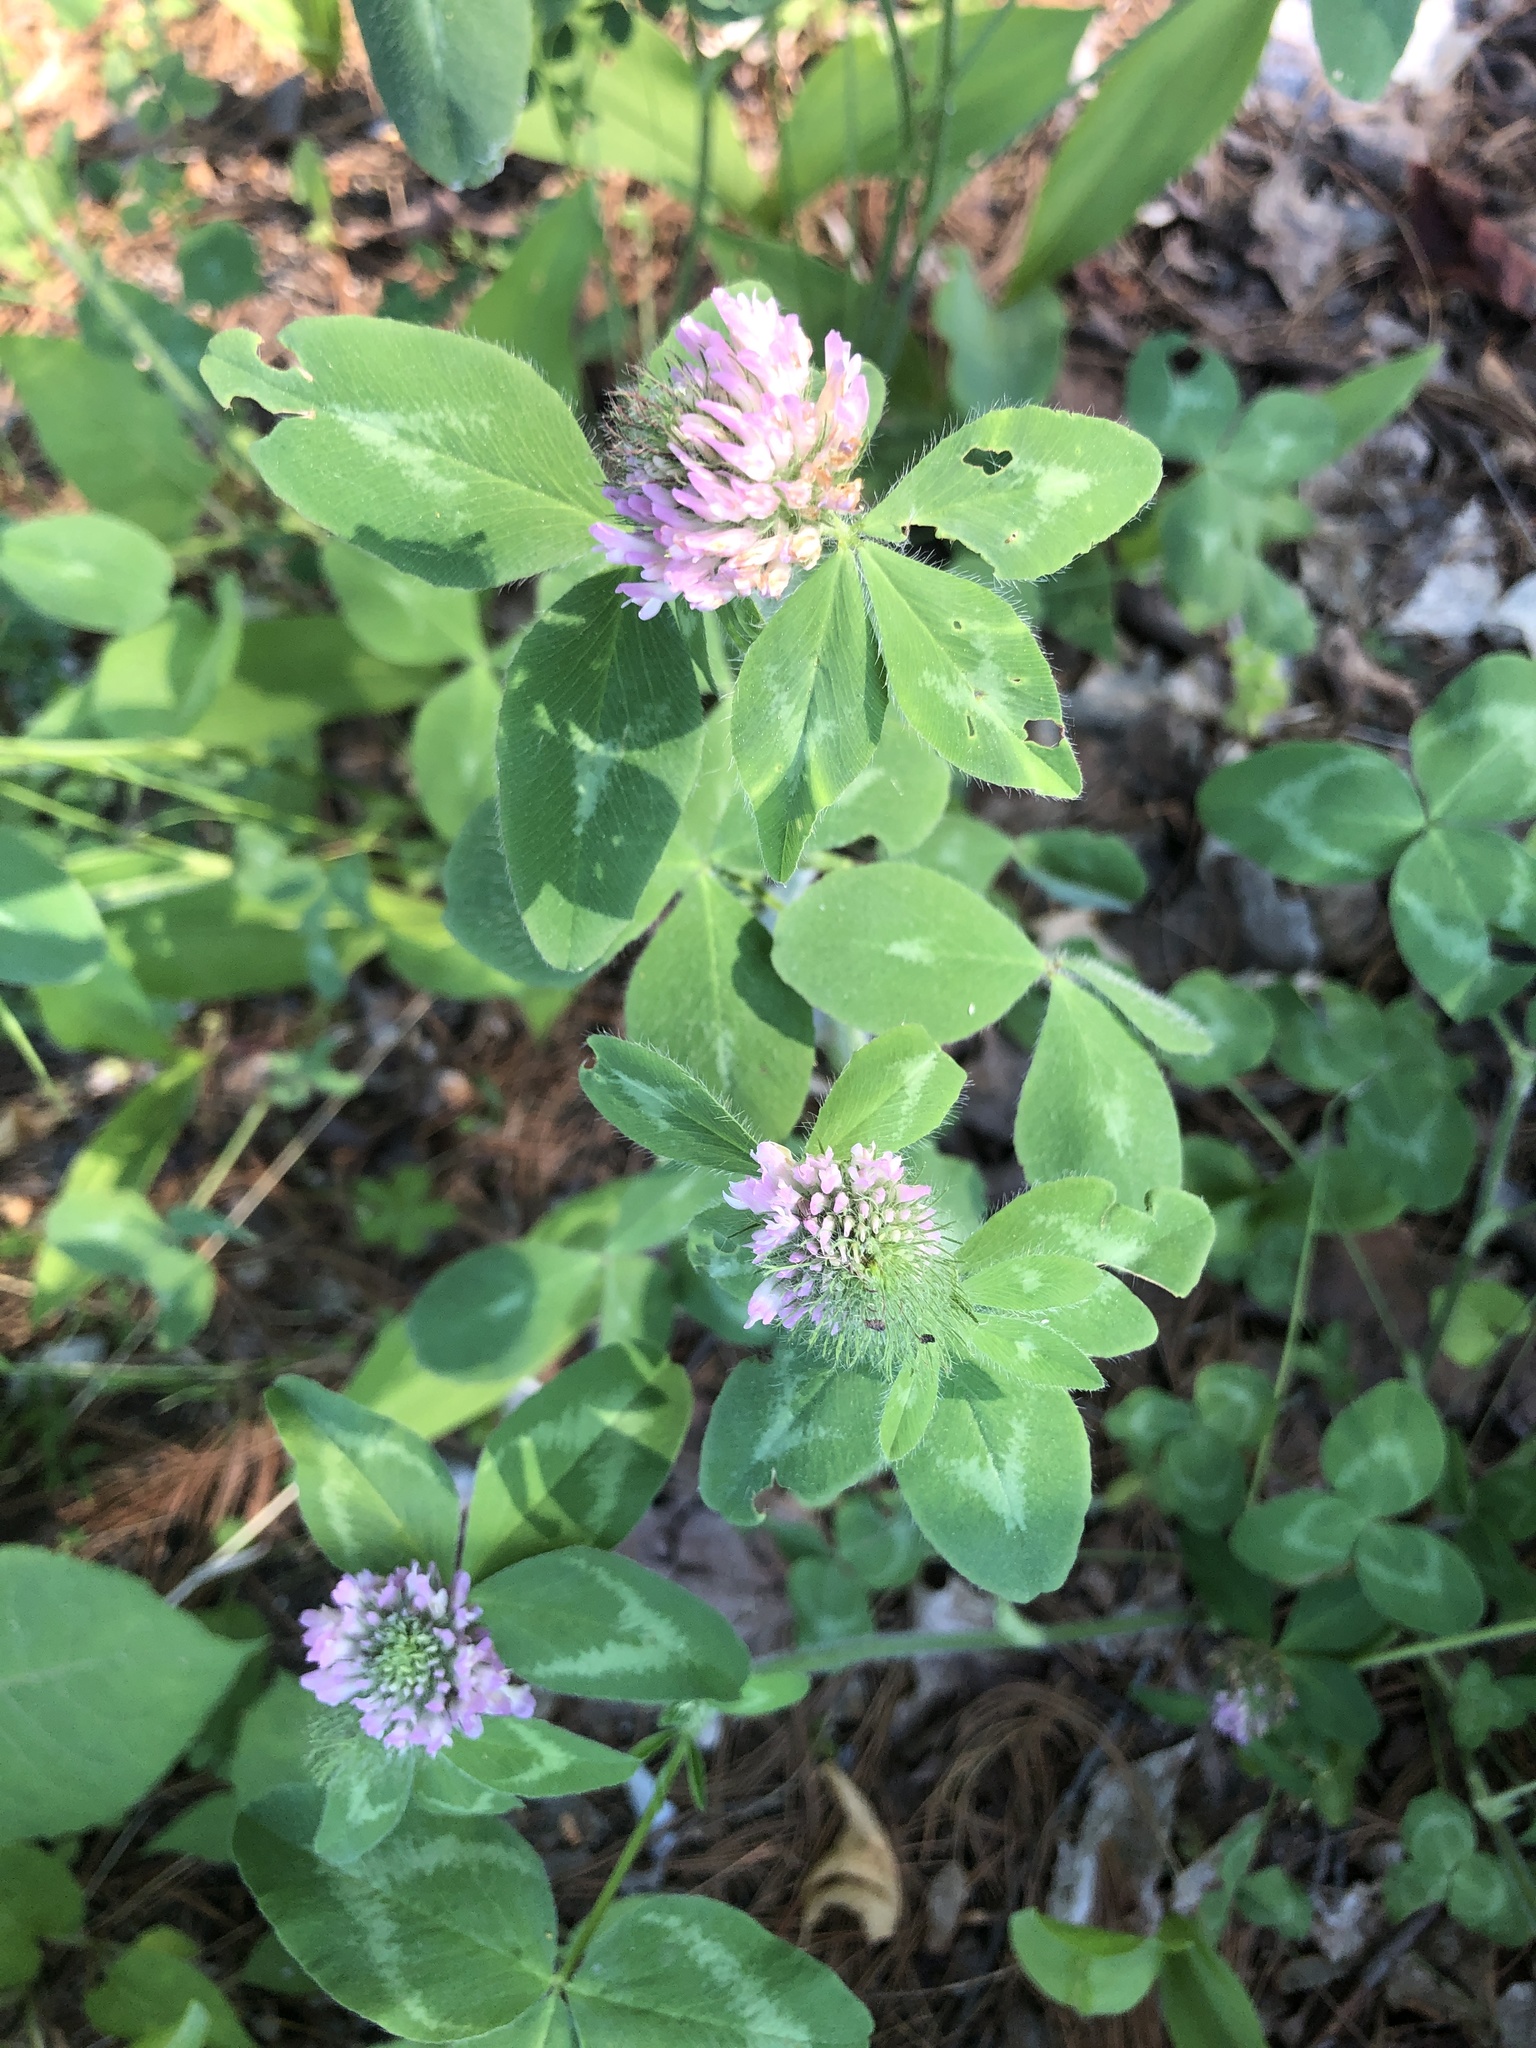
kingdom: Plantae
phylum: Tracheophyta
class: Magnoliopsida
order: Fabales
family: Fabaceae
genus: Trifolium
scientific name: Trifolium pratense
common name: Red clover
